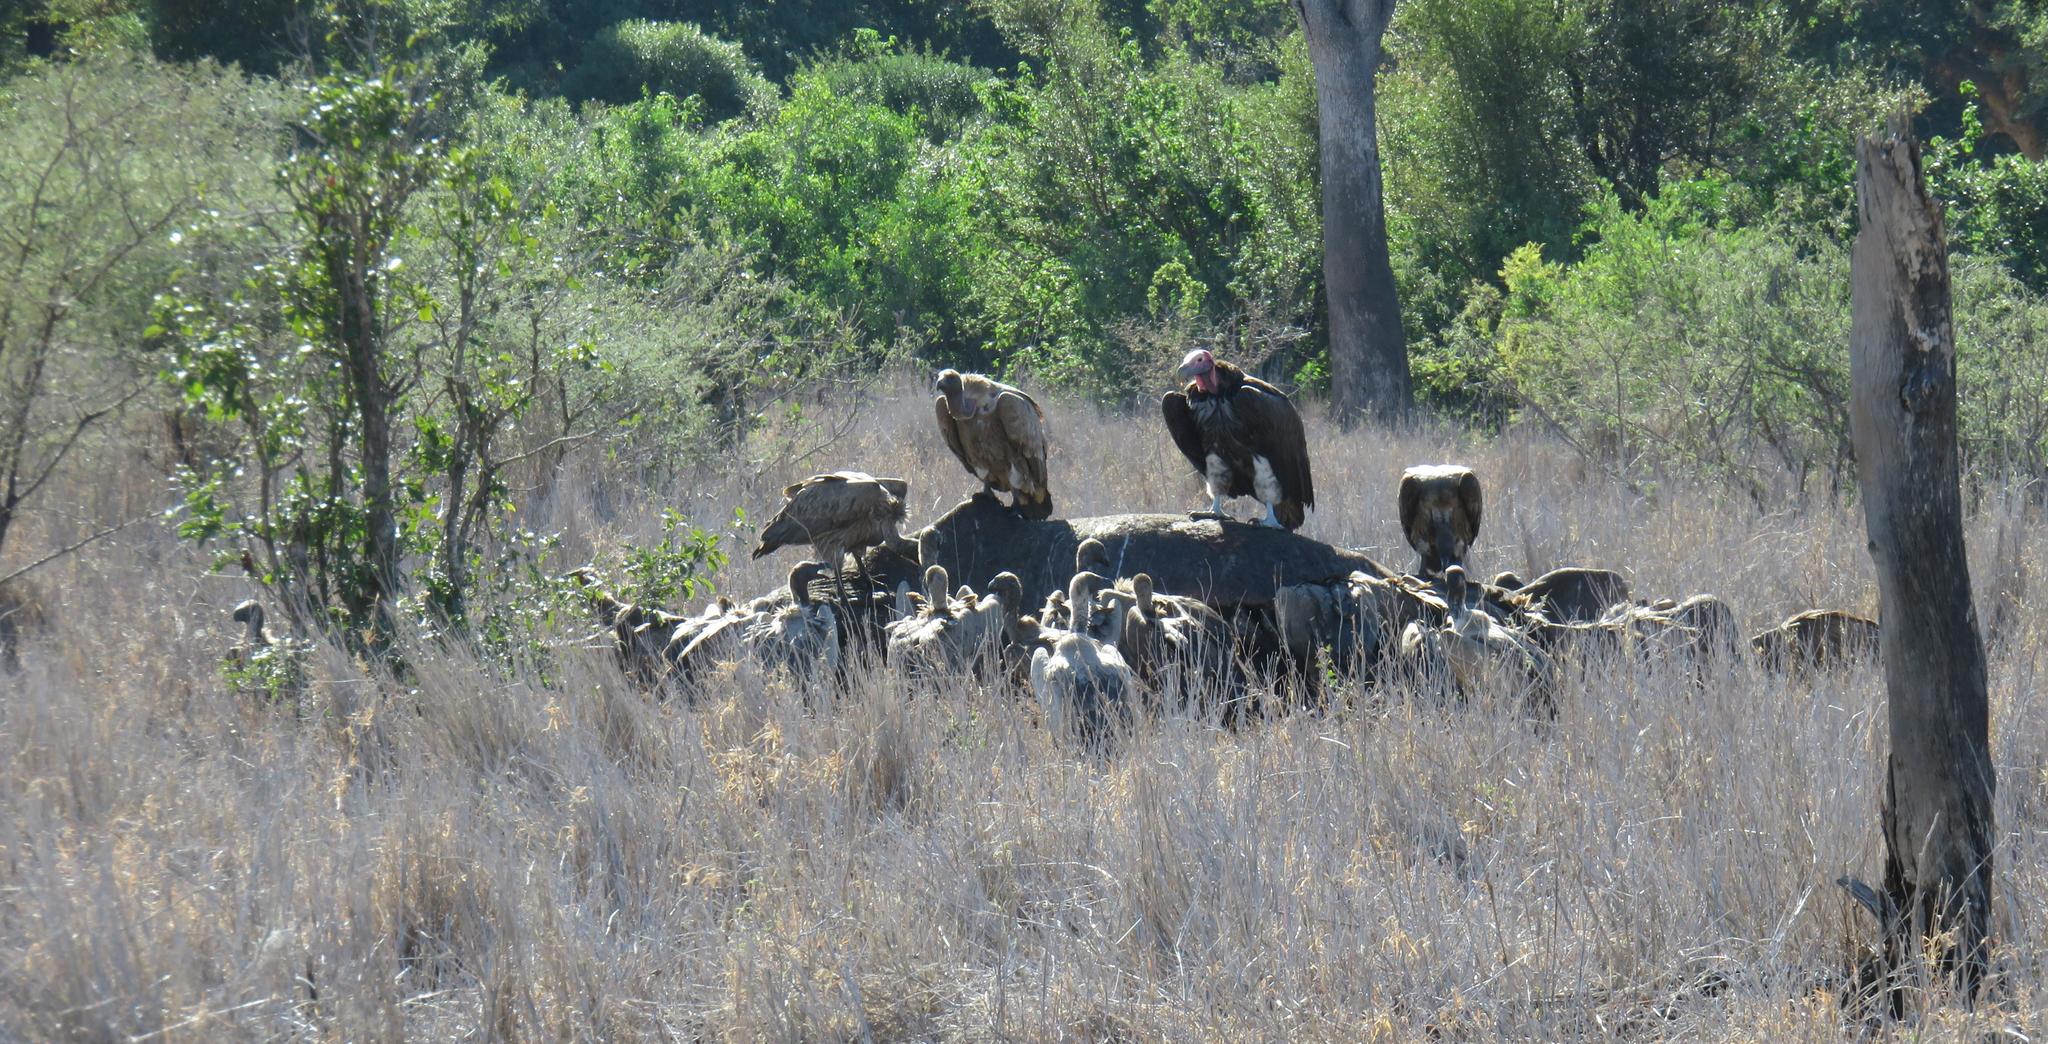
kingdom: Animalia
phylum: Chordata
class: Aves
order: Accipitriformes
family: Accipitridae
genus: Torgos
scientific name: Torgos tracheliotos
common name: Lappet-faced vulture
